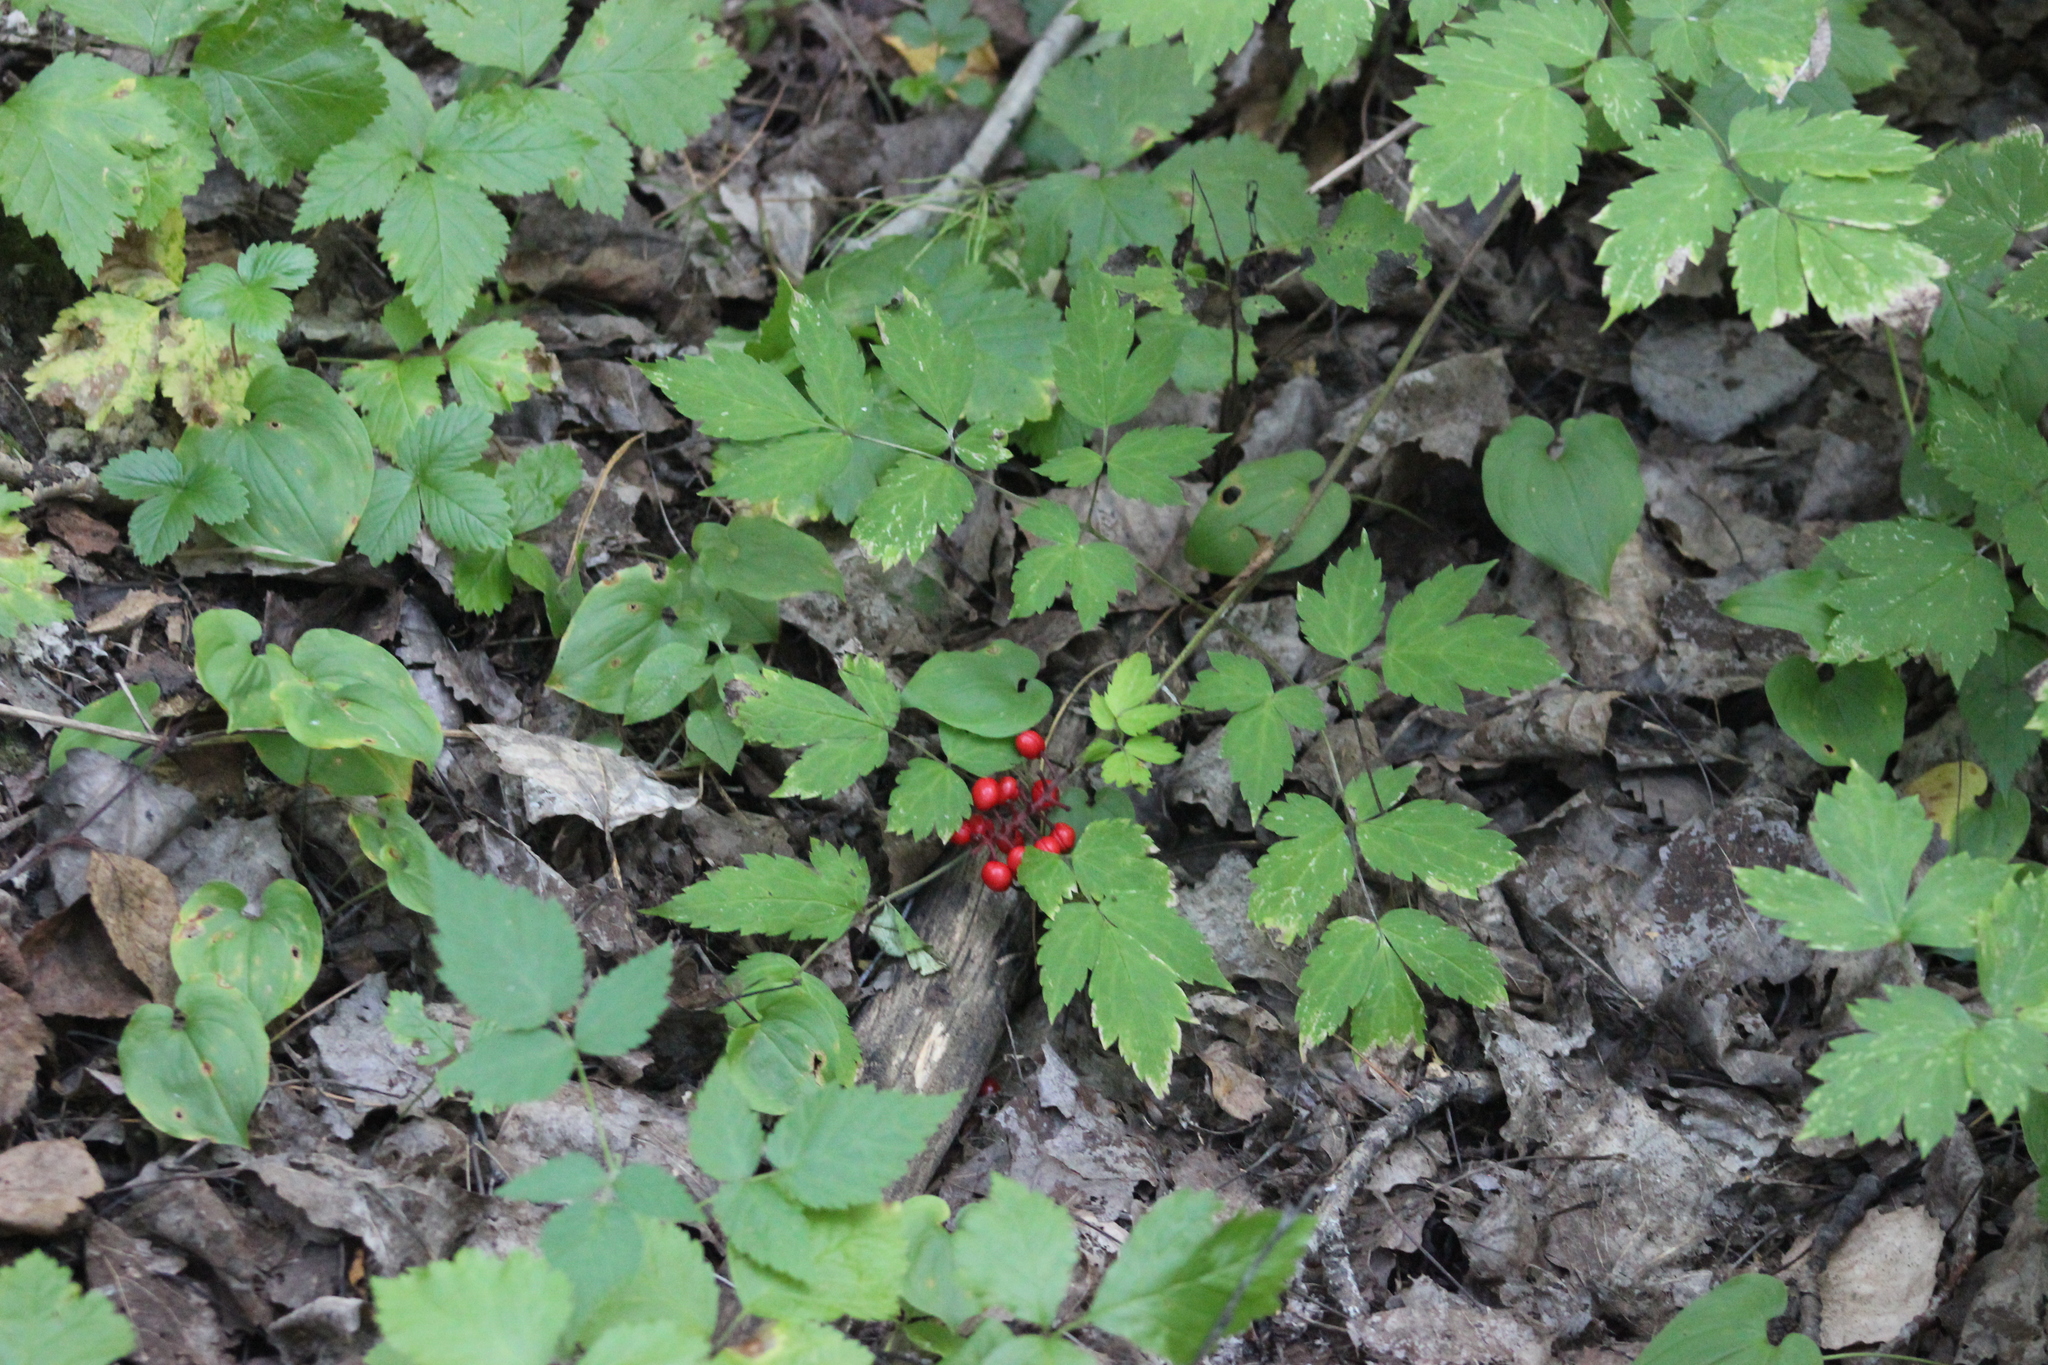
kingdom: Plantae
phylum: Tracheophyta
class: Magnoliopsida
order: Ranunculales
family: Ranunculaceae
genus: Actaea
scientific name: Actaea erythrocarpa
